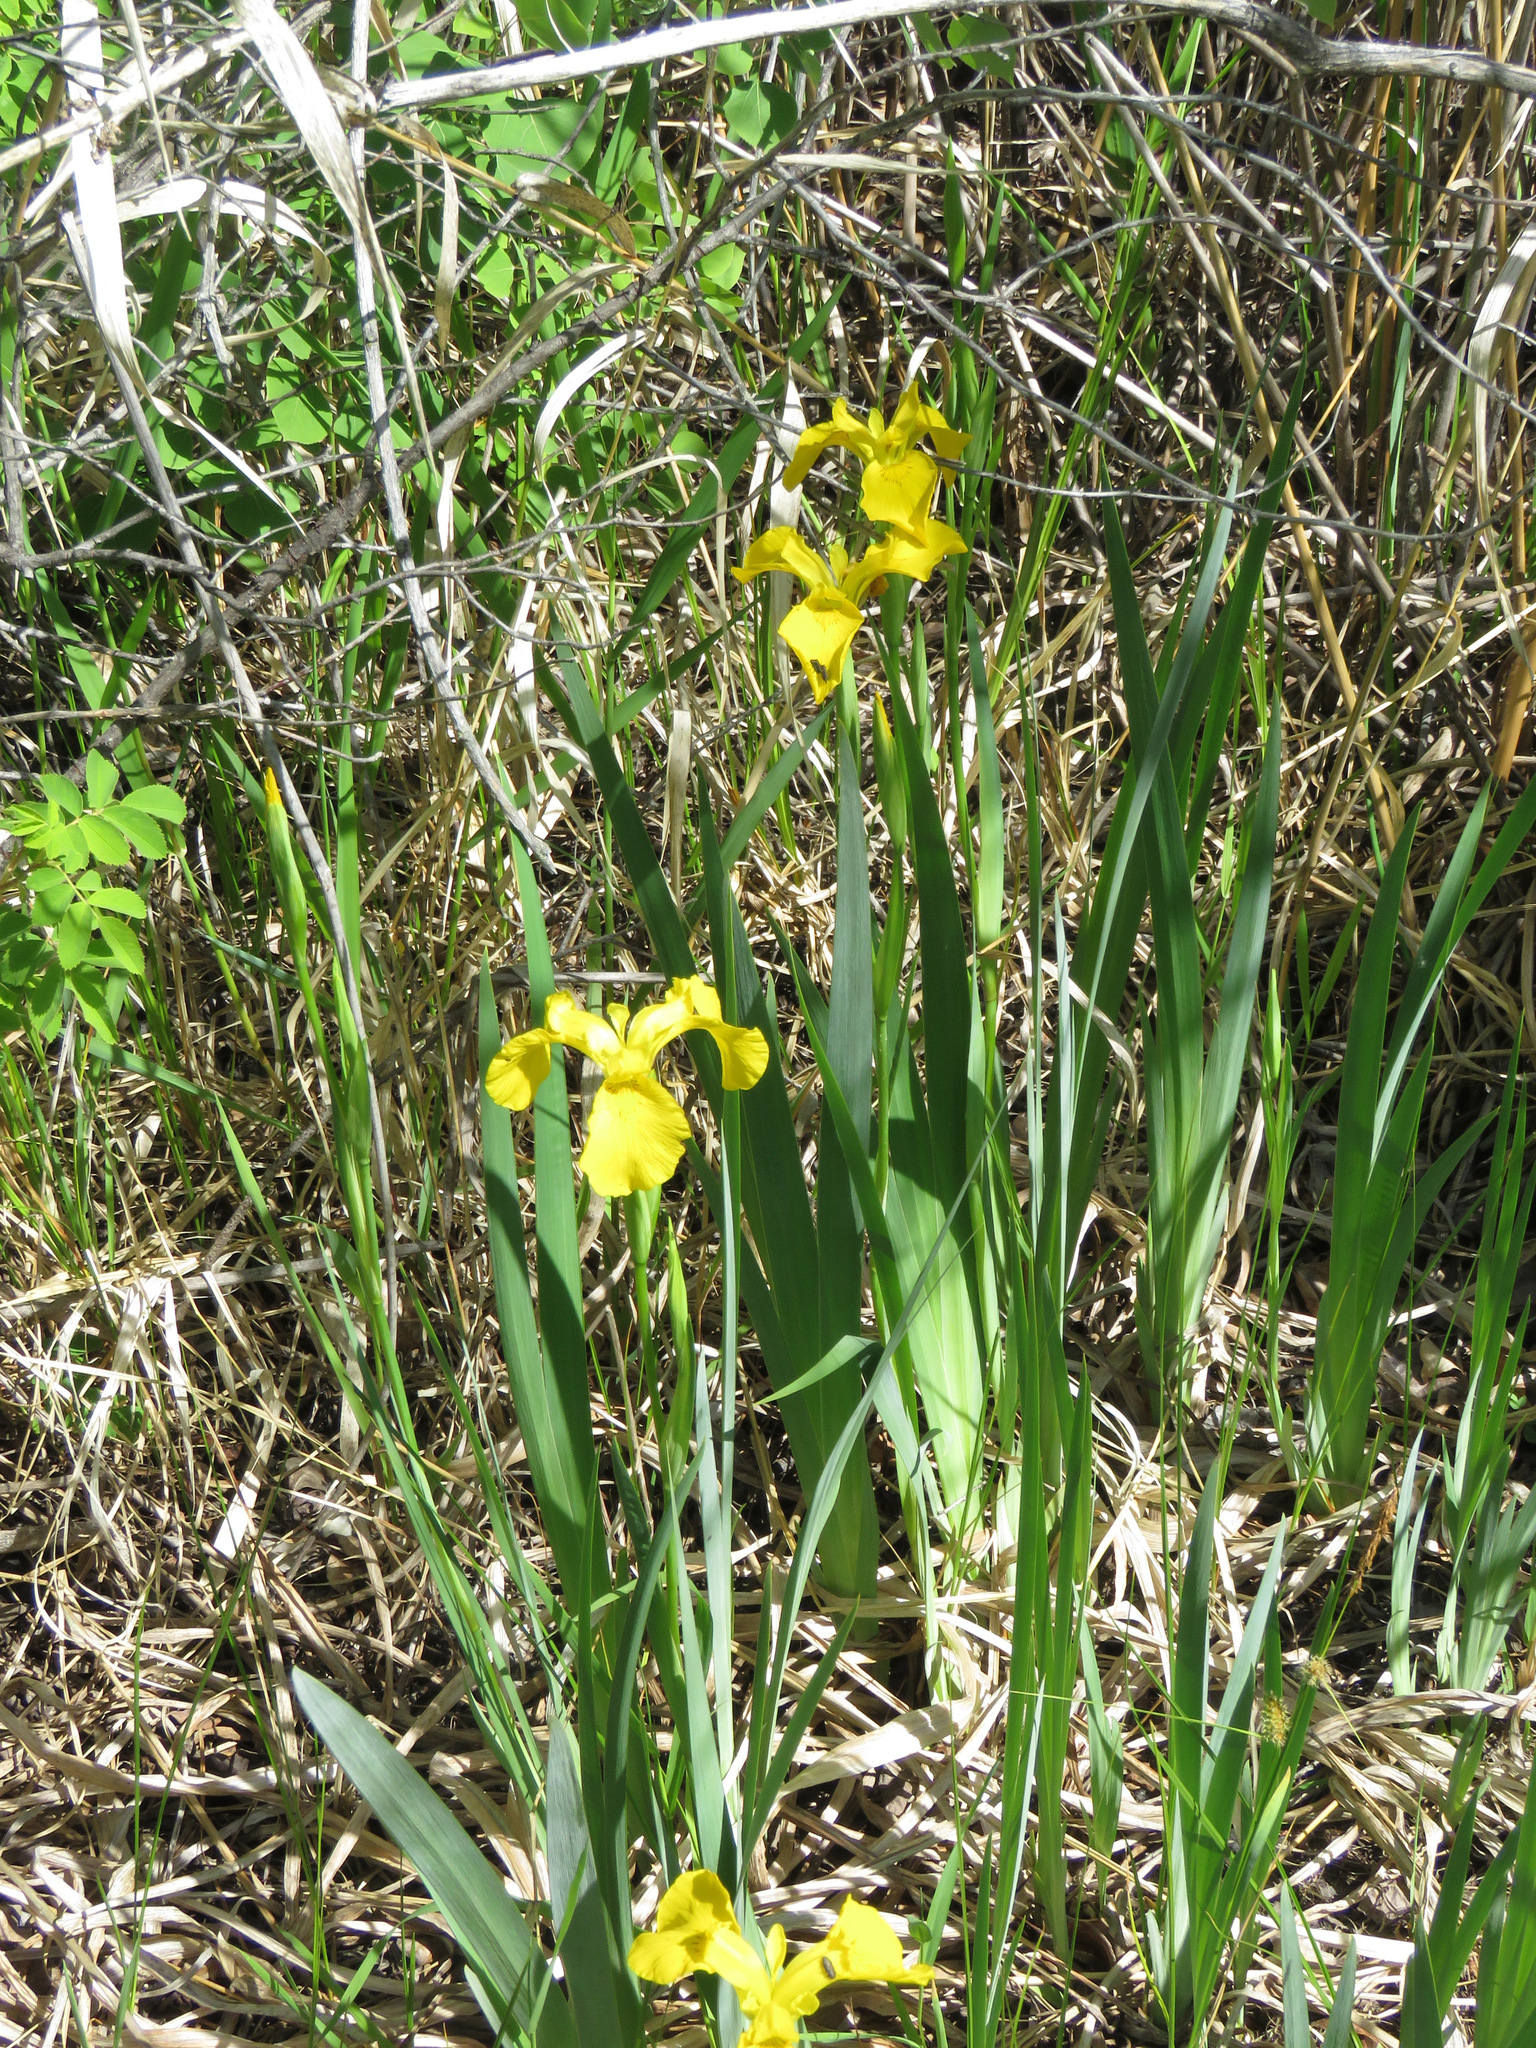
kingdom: Plantae
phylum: Tracheophyta
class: Liliopsida
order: Asparagales
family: Iridaceae
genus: Iris
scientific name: Iris pseudacorus
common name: Yellow flag
